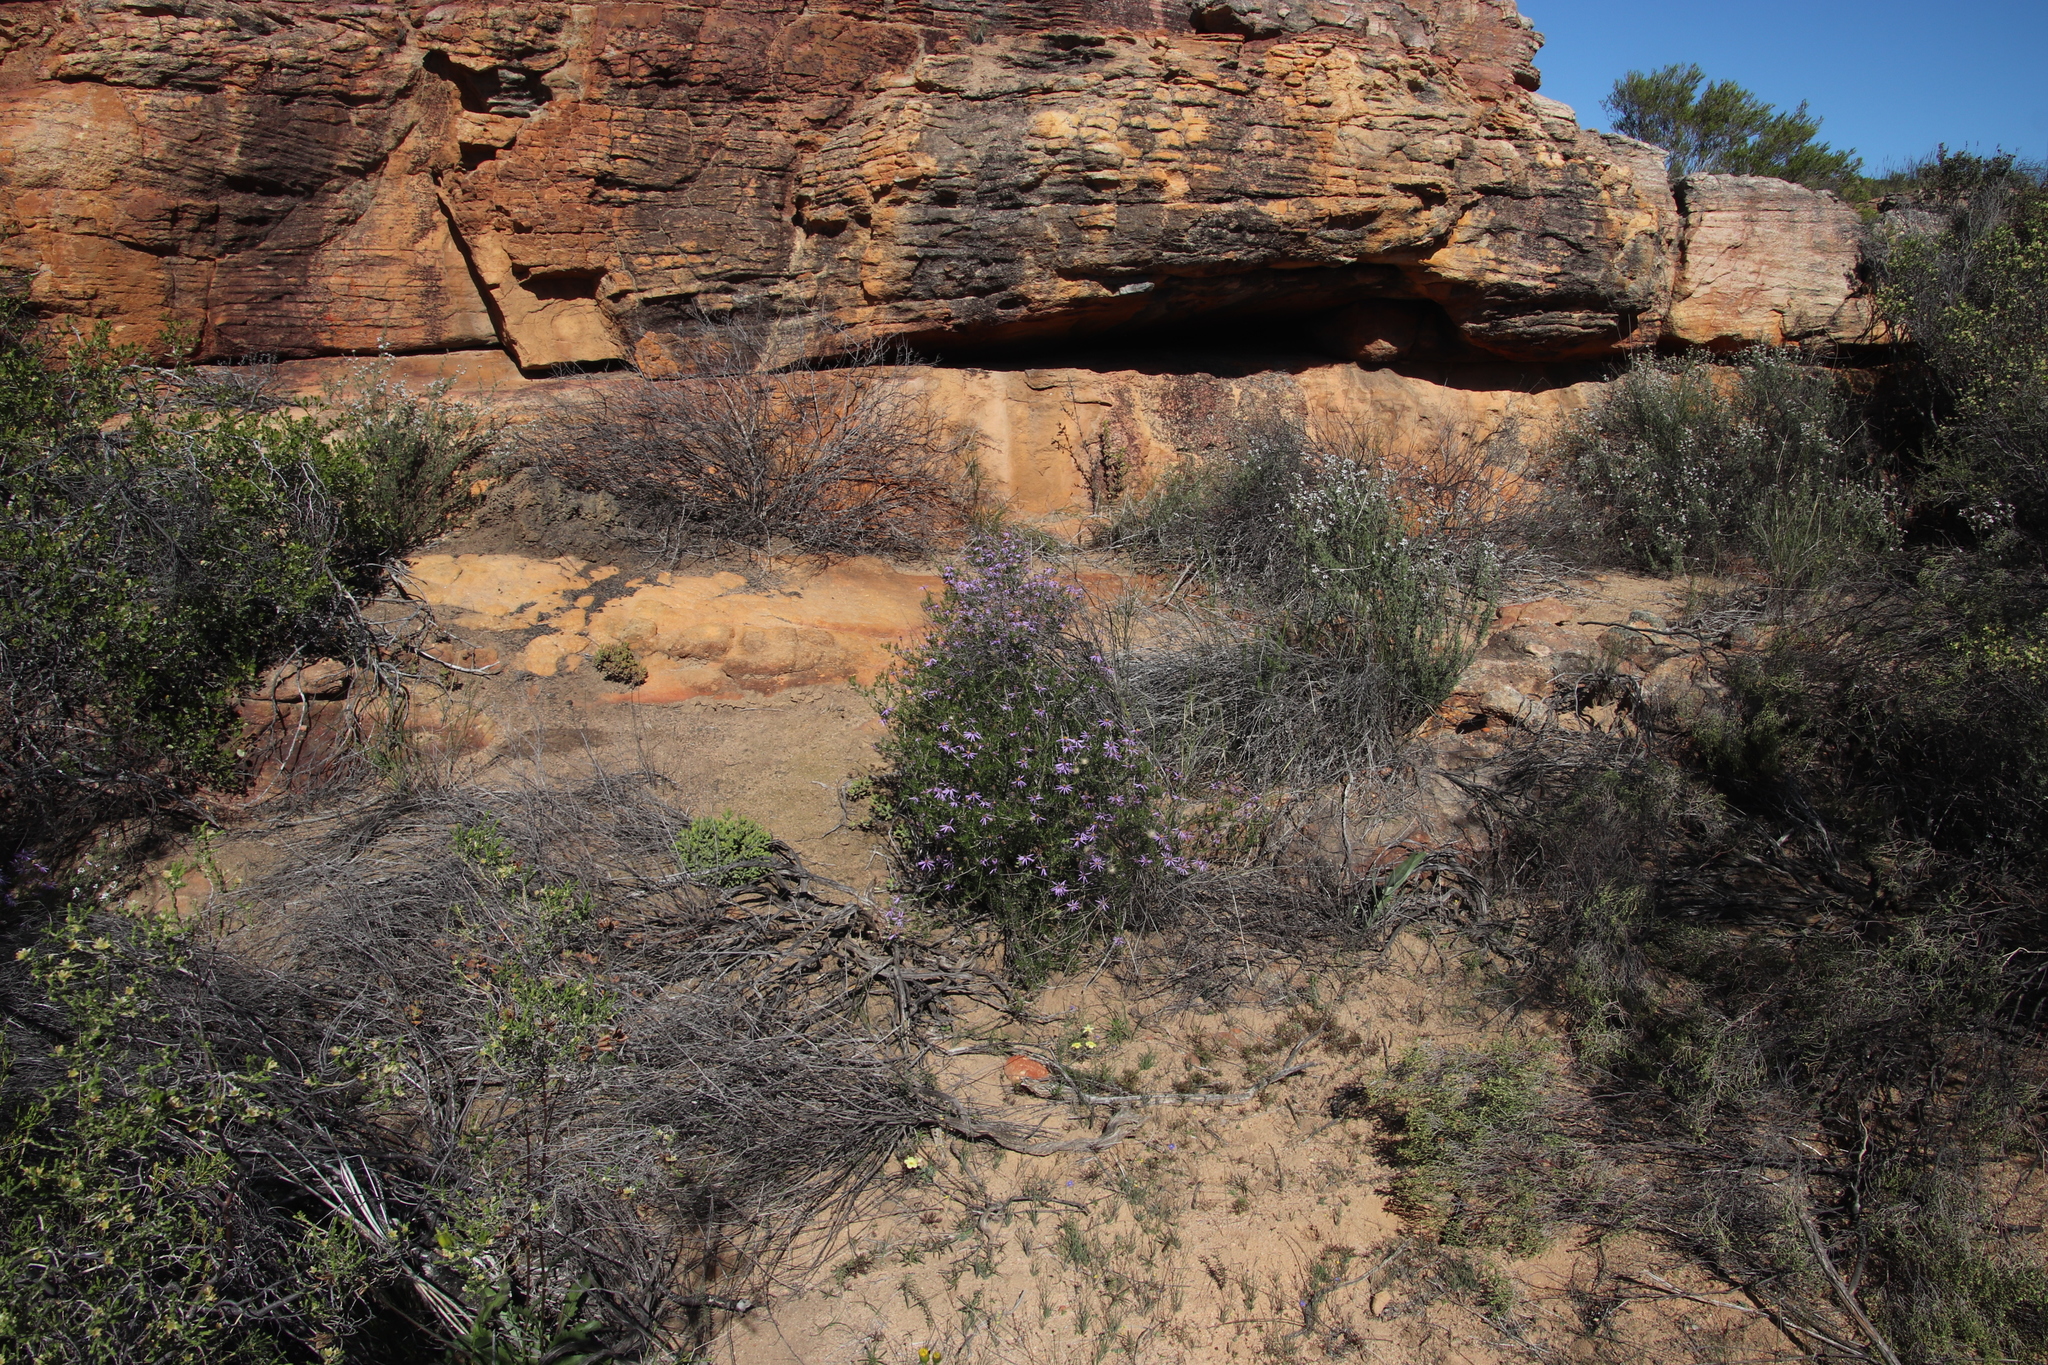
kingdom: Plantae
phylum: Tracheophyta
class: Magnoliopsida
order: Asterales
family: Asteraceae
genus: Felicia
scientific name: Felicia filifolia
